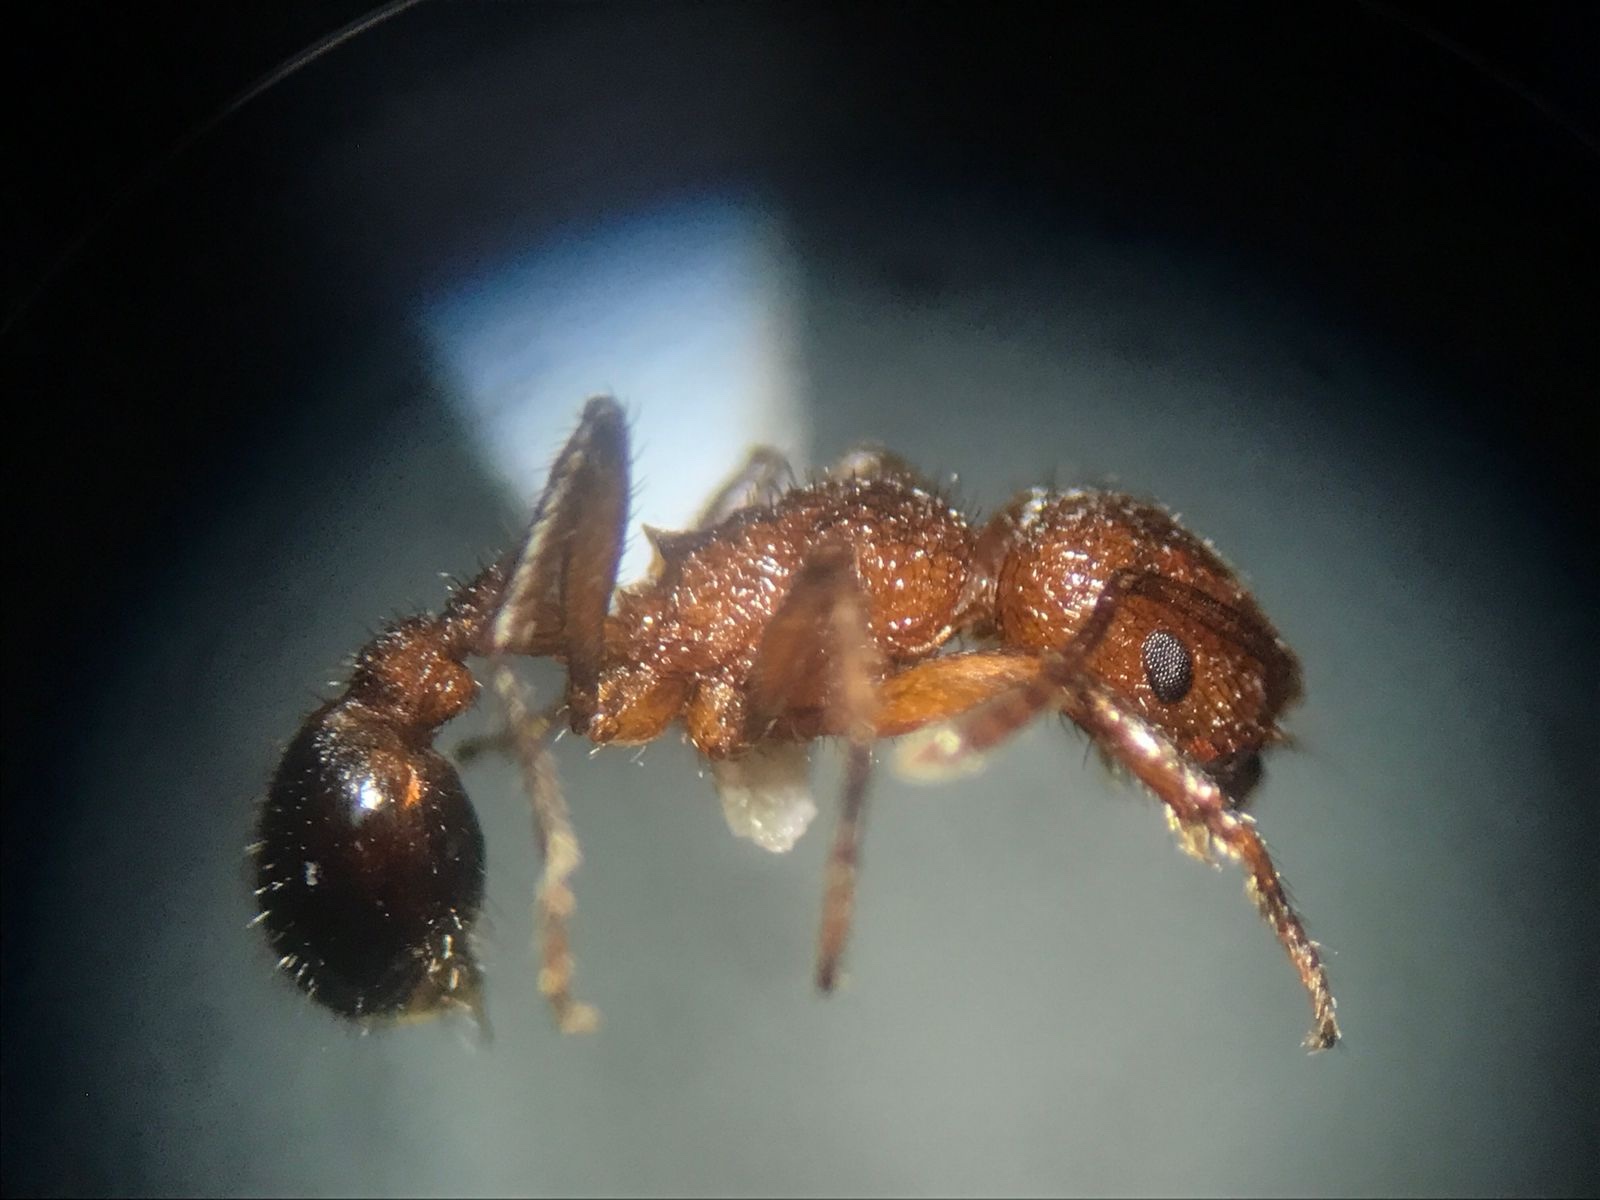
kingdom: Animalia
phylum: Arthropoda
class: Insecta
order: Hymenoptera
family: Formicidae
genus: Pogonomyrmex
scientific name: Pogonomyrmex naegelii
